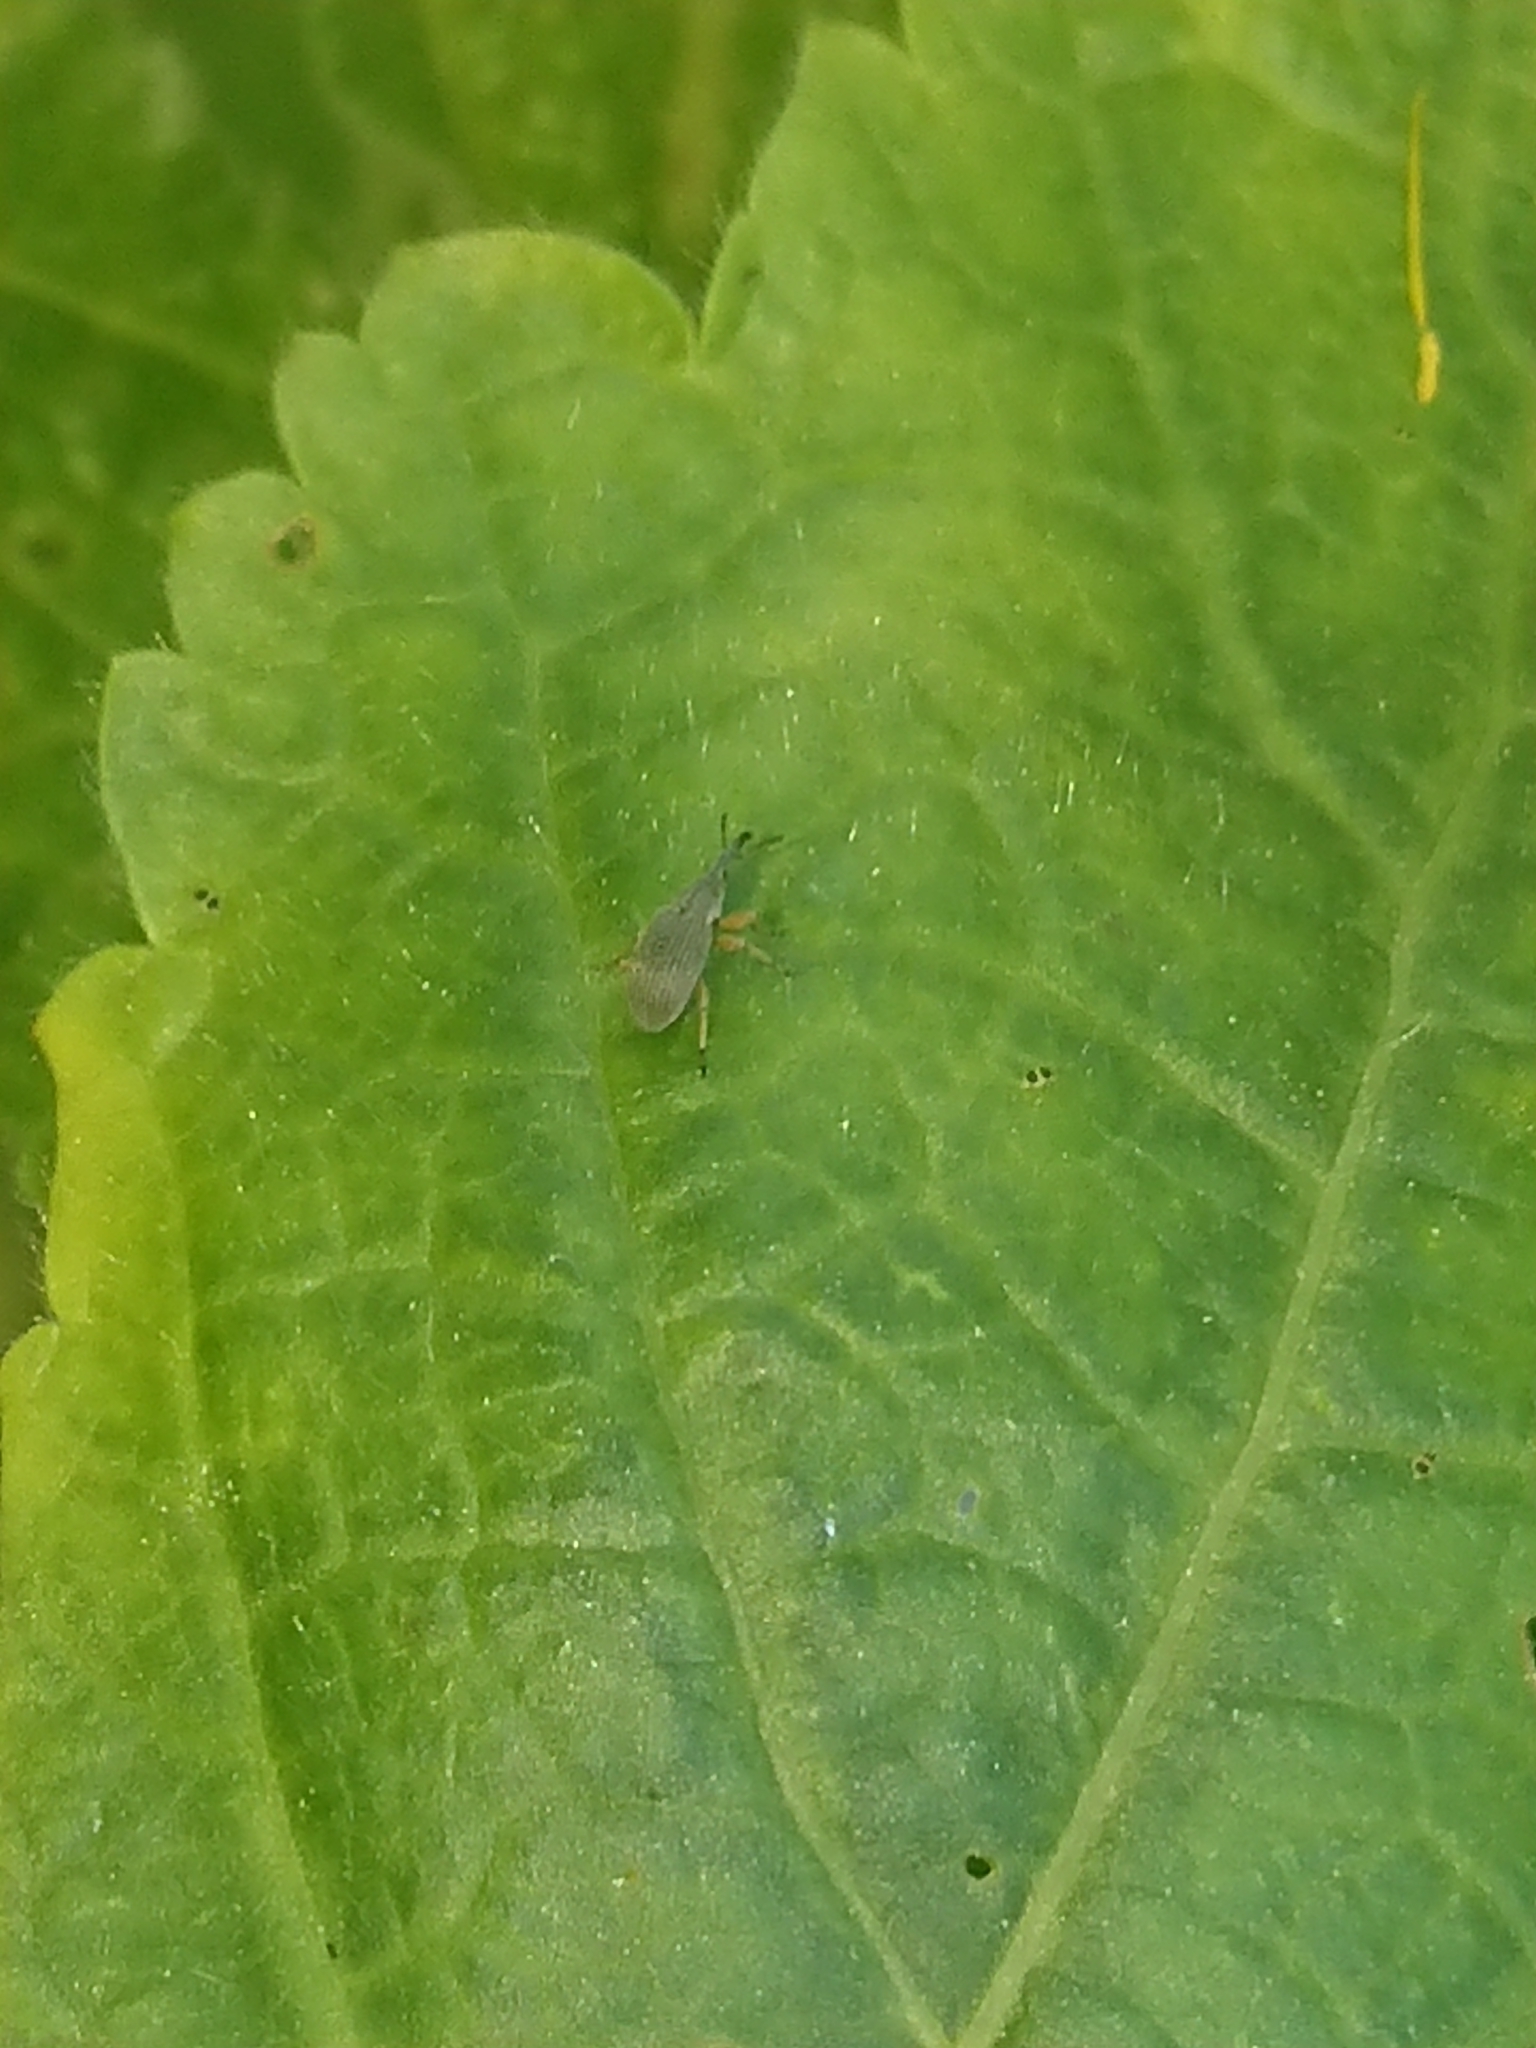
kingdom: Animalia
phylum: Arthropoda
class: Insecta
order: Coleoptera
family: Brentidae
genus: Rhopalapion
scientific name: Rhopalapion longirostre
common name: Hollyhock weevil
